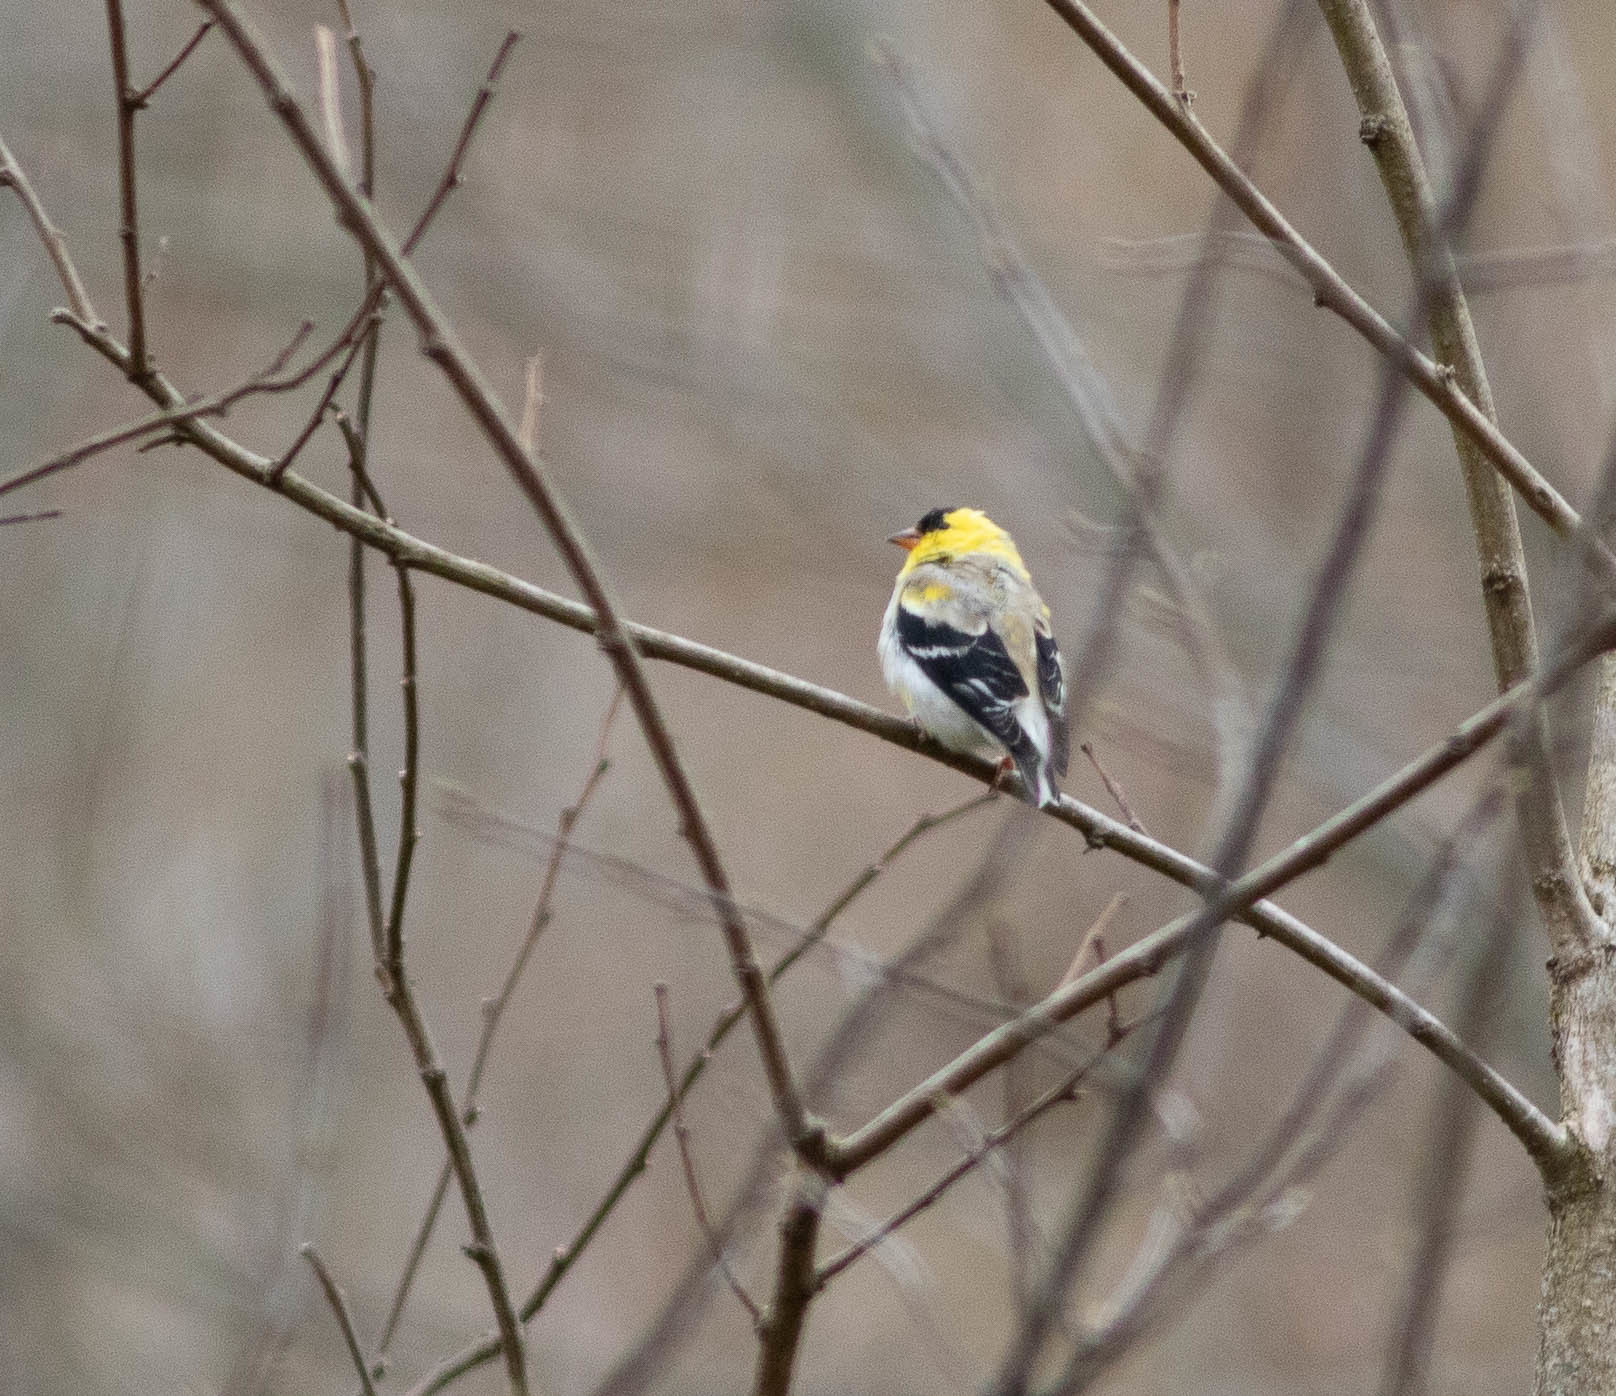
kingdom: Animalia
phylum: Chordata
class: Aves
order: Passeriformes
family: Fringillidae
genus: Spinus
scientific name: Spinus tristis
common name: American goldfinch
